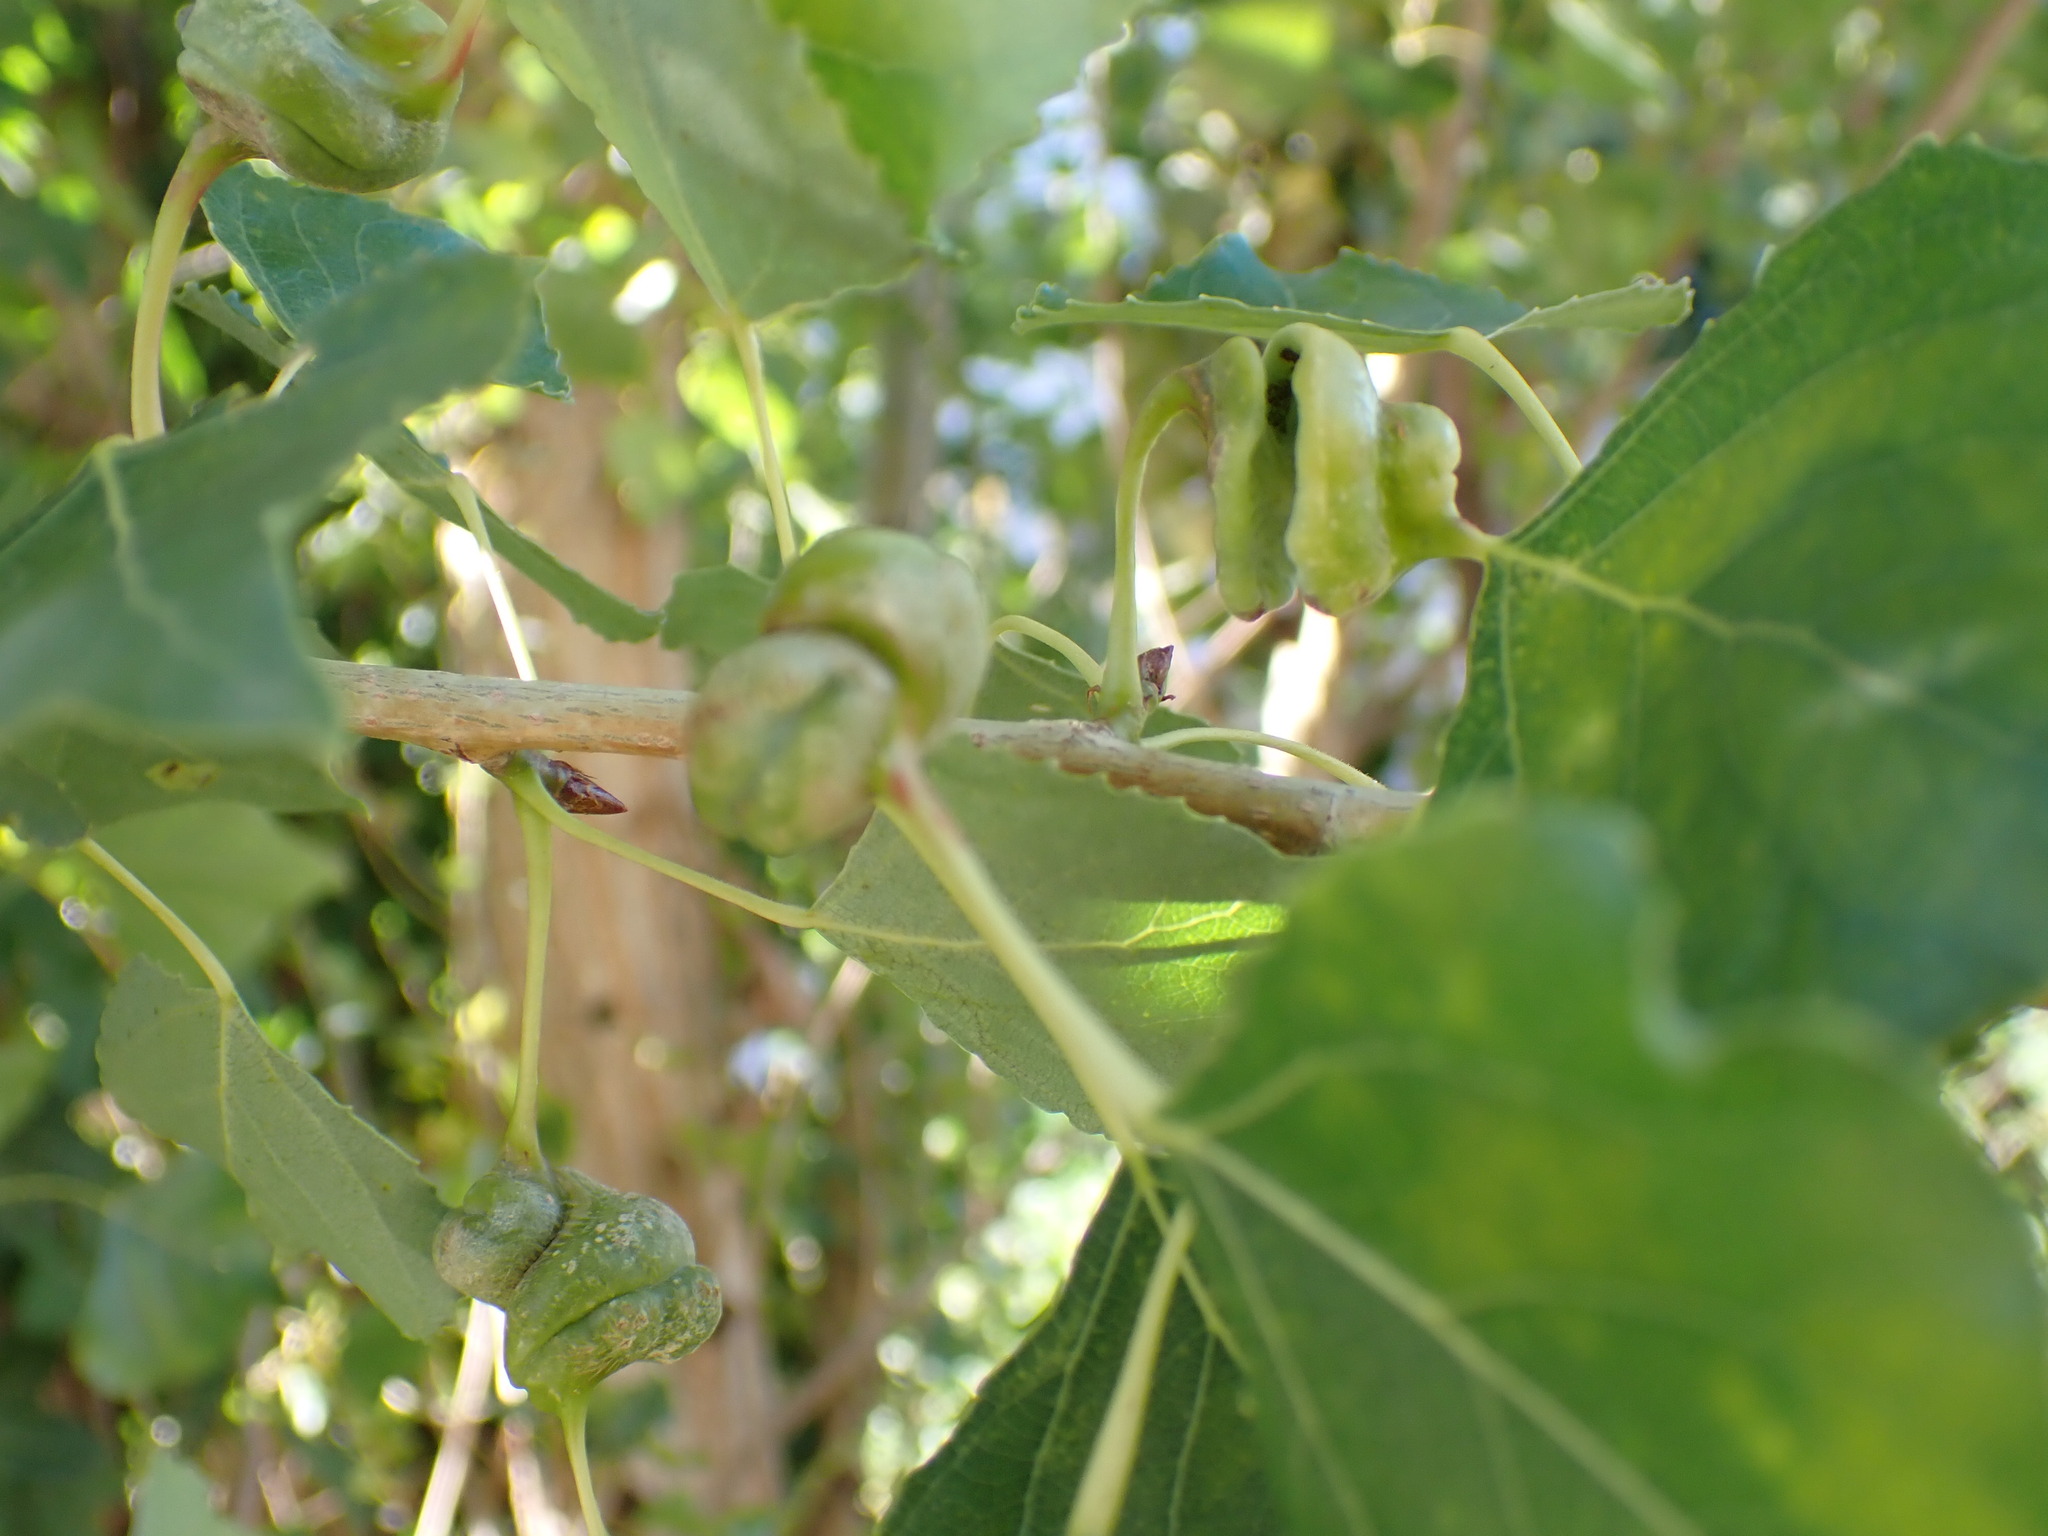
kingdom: Animalia
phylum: Arthropoda
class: Insecta
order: Hemiptera
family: Aphididae
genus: Pemphigus
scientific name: Pemphigus spyrothecae
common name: Aphid
